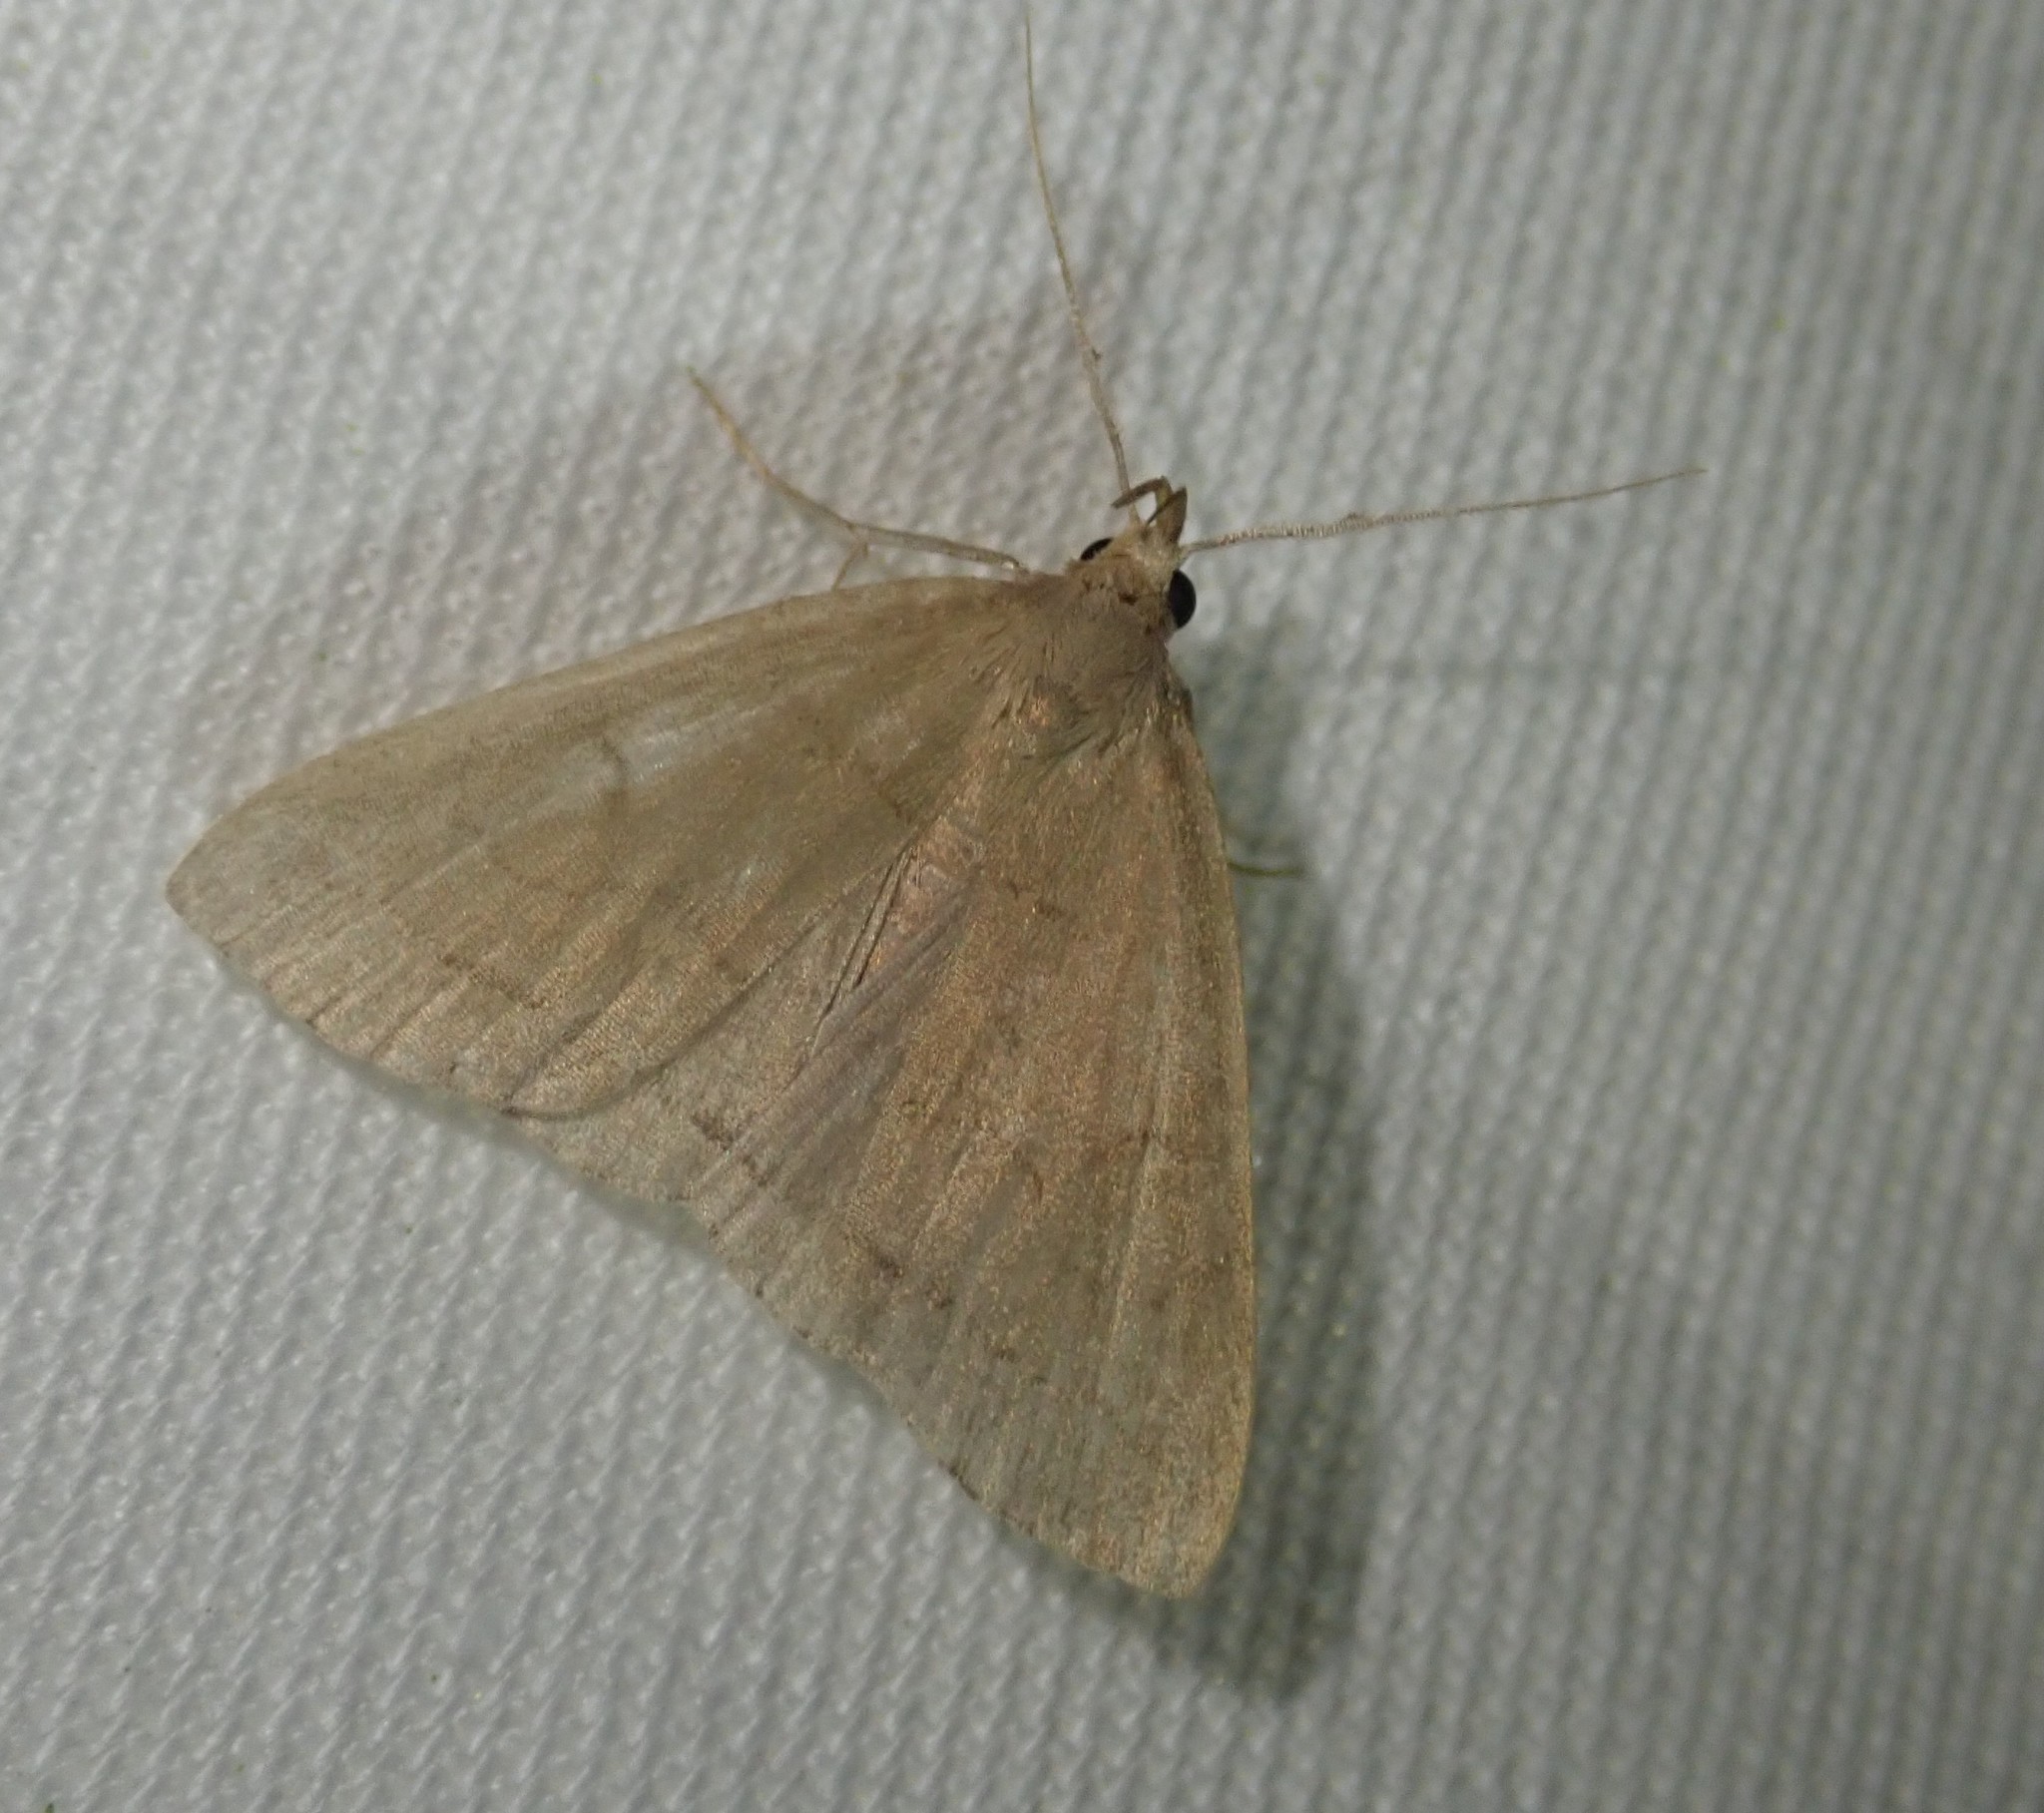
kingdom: Animalia
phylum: Arthropoda
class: Insecta
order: Lepidoptera
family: Erebidae
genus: Herminia
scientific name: Herminia tarsipennalis
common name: Fan-foot
